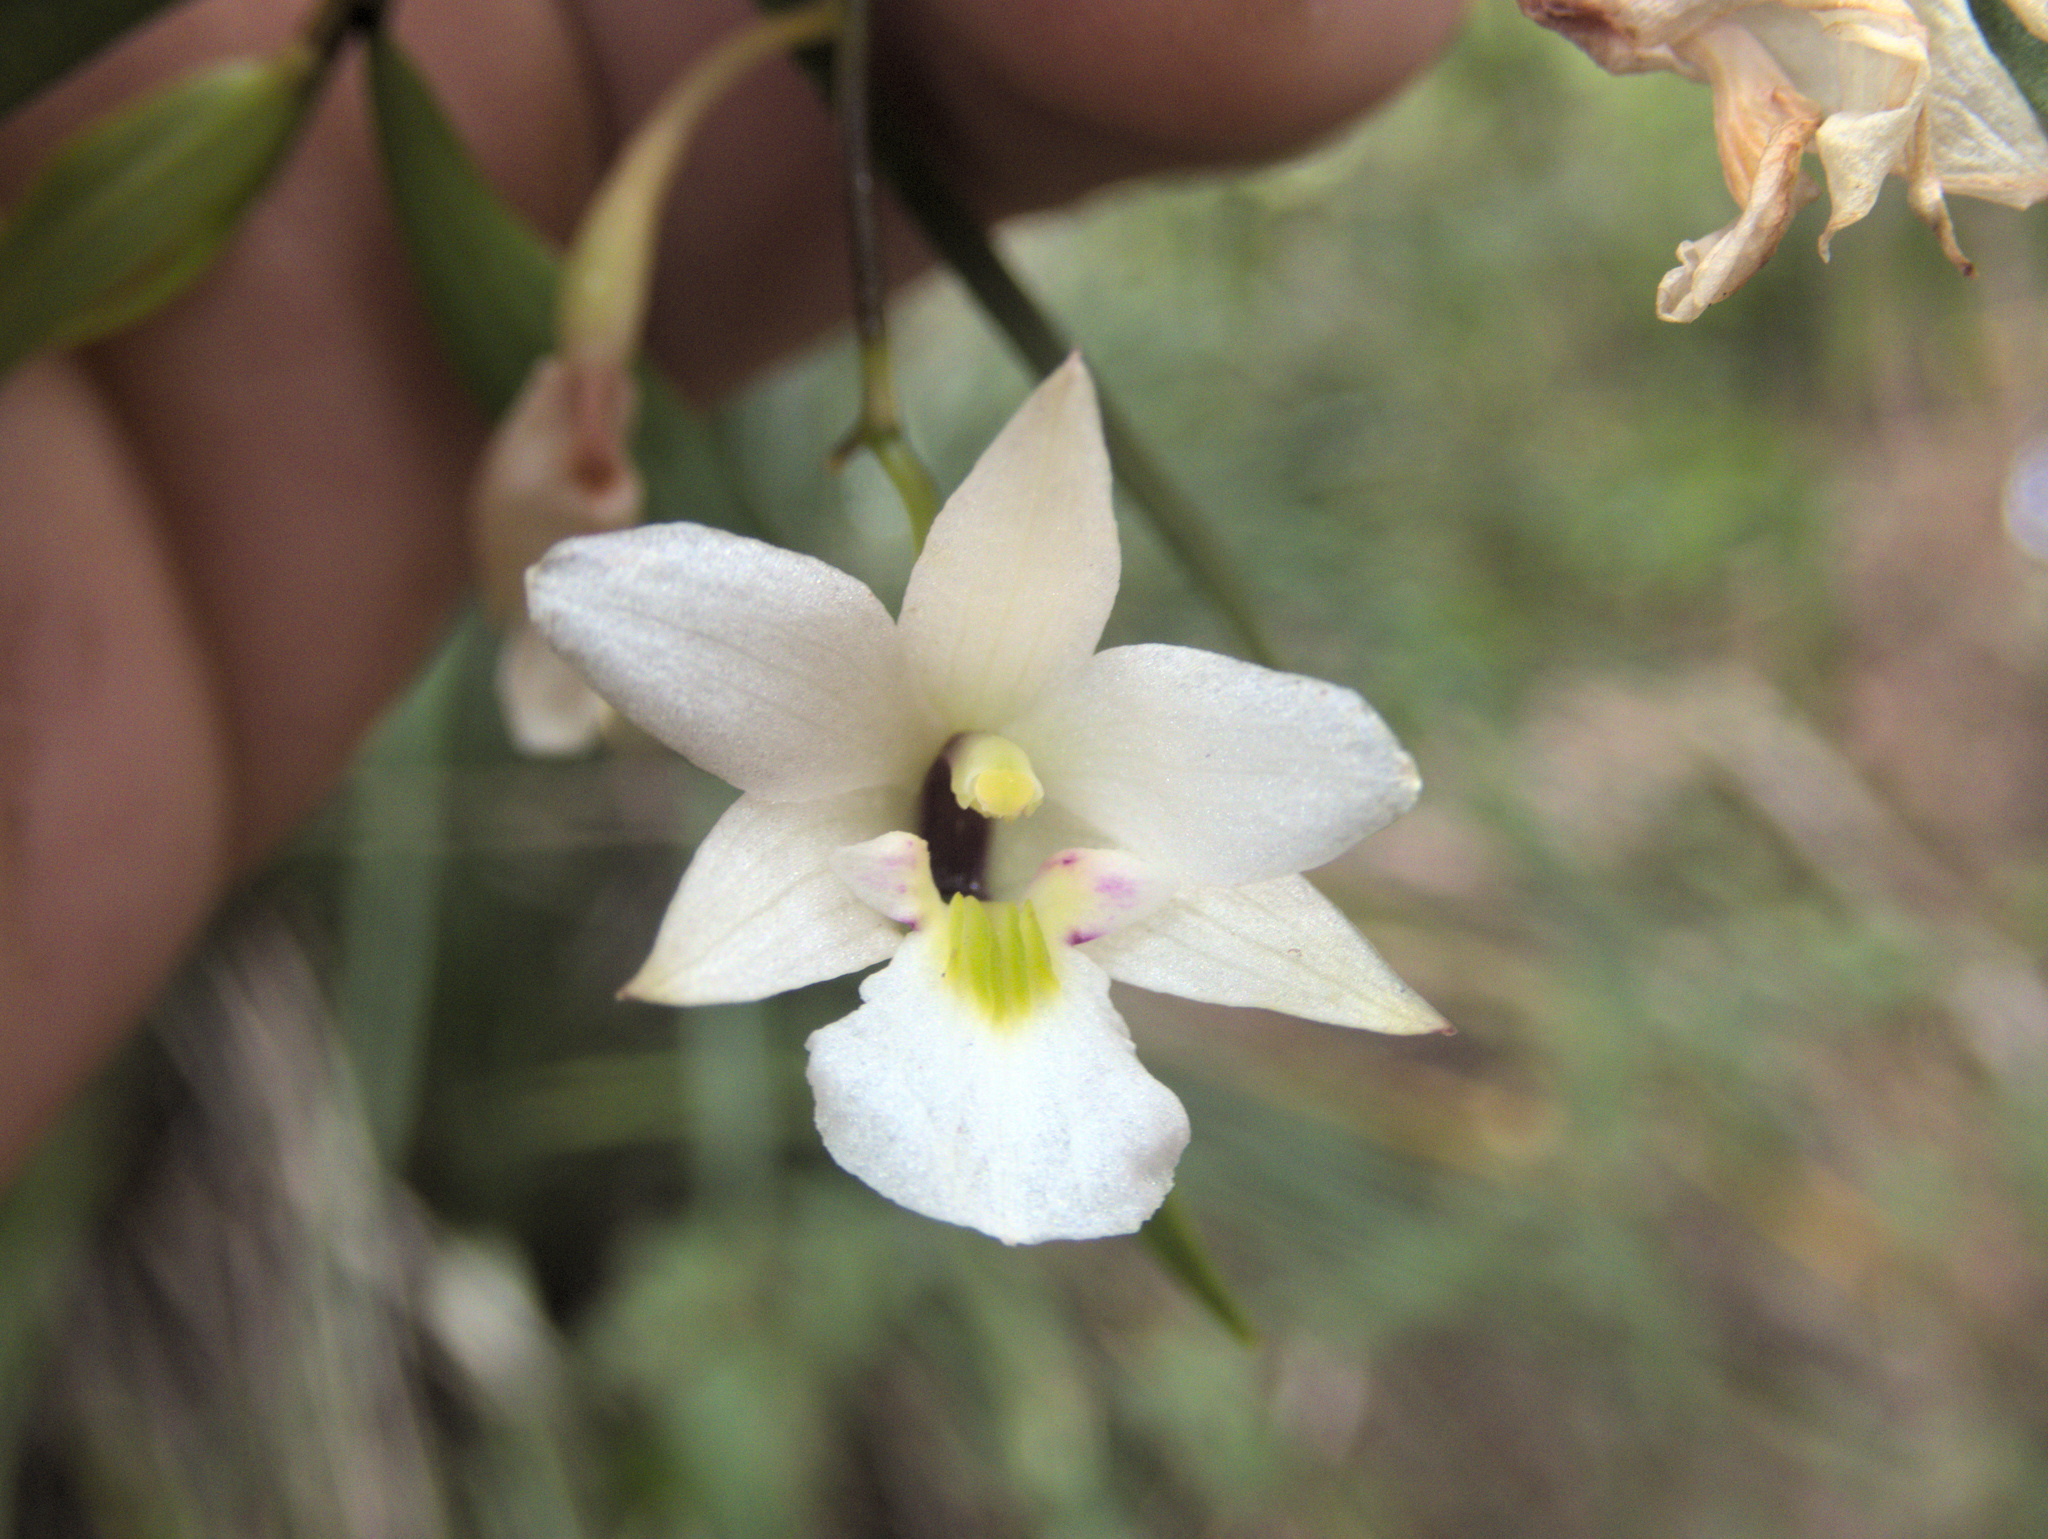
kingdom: Plantae
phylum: Tracheophyta
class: Liliopsida
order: Asparagales
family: Orchidaceae
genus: Dendrobium
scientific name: Dendrobium cunninghamii
